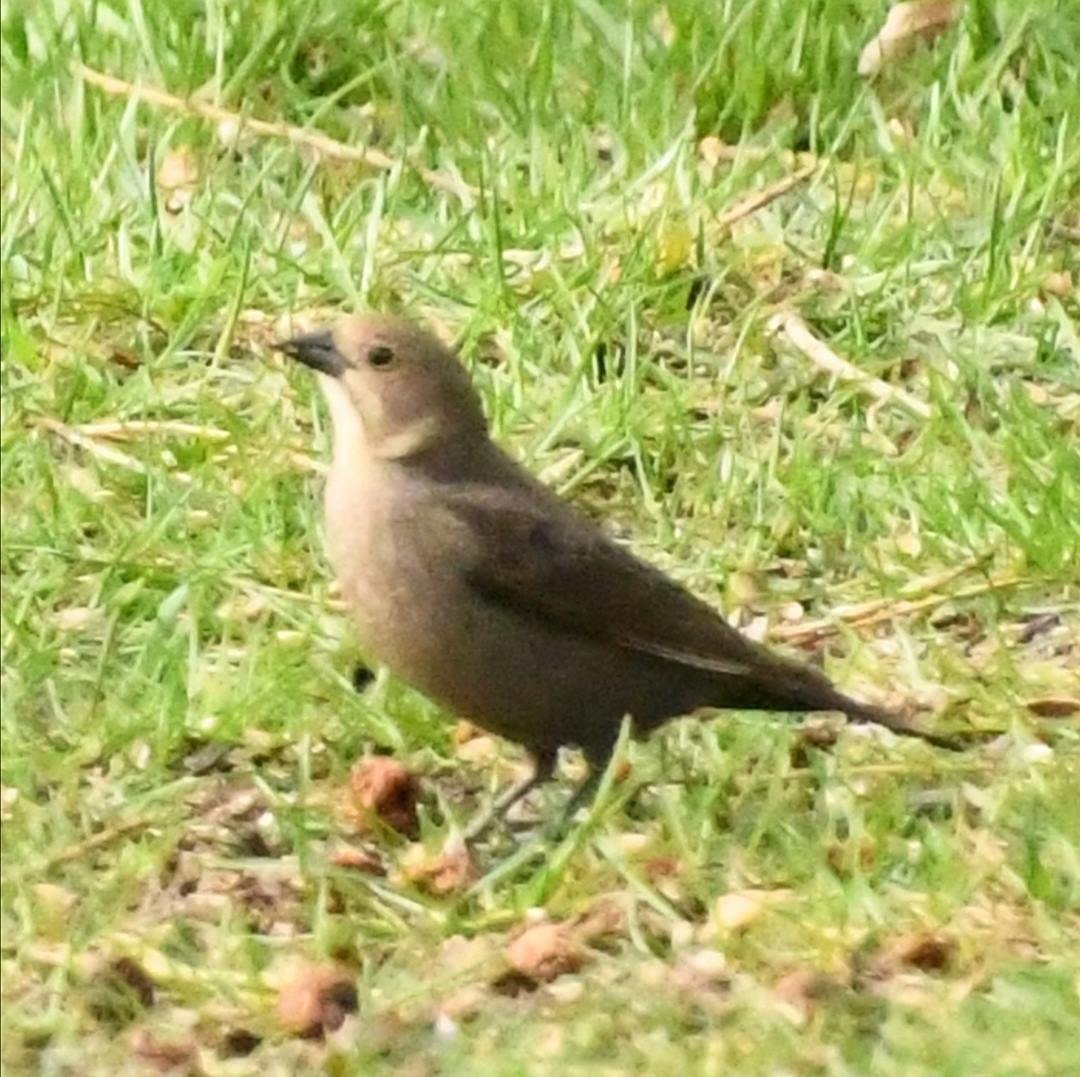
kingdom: Animalia
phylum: Chordata
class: Aves
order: Passeriformes
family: Icteridae
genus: Molothrus
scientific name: Molothrus ater
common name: Brown-headed cowbird
